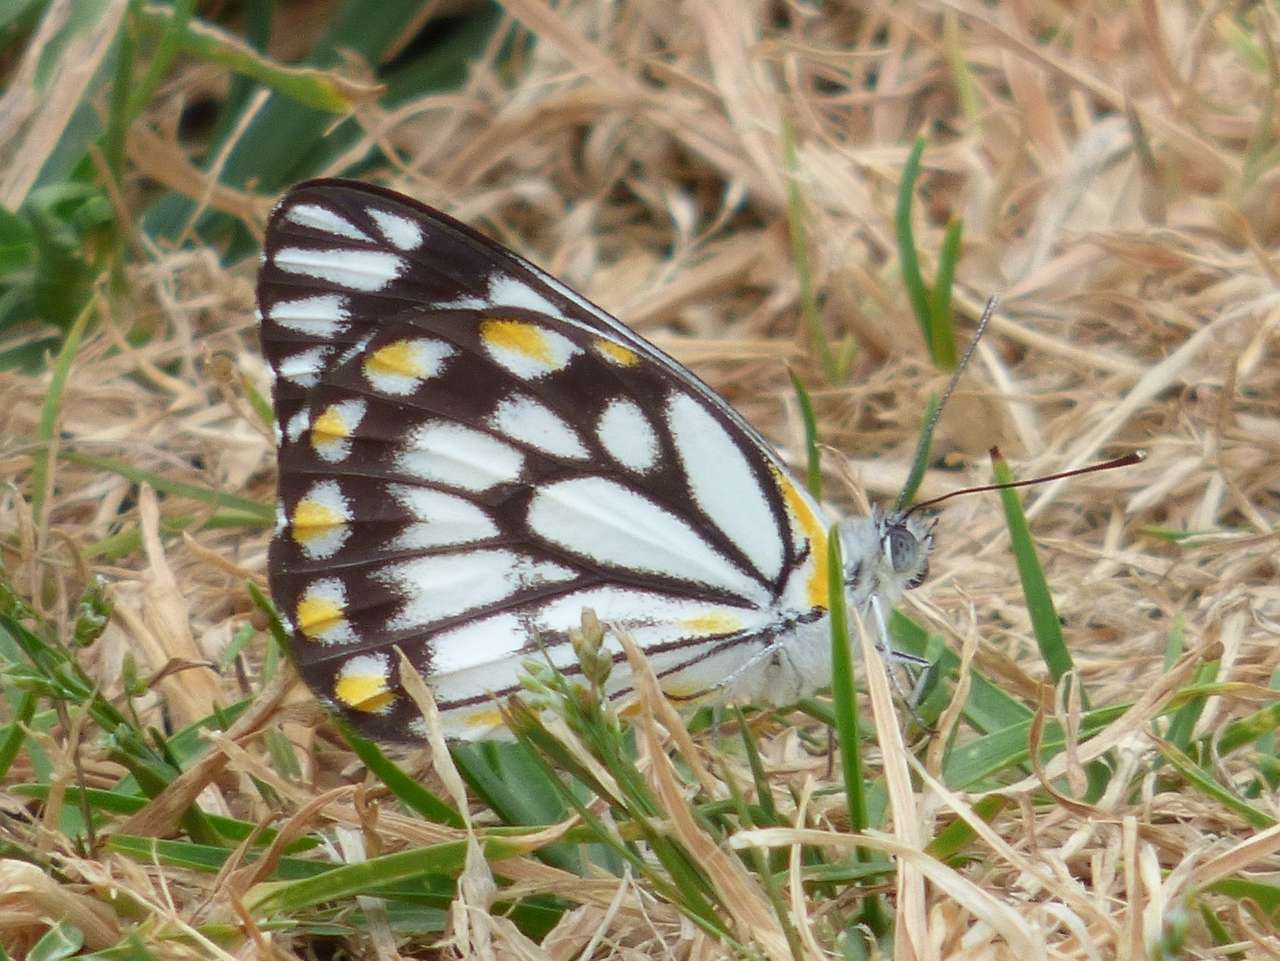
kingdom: Animalia
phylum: Arthropoda
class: Insecta
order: Lepidoptera
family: Pieridae
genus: Belenois
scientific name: Belenois java
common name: Caper white
